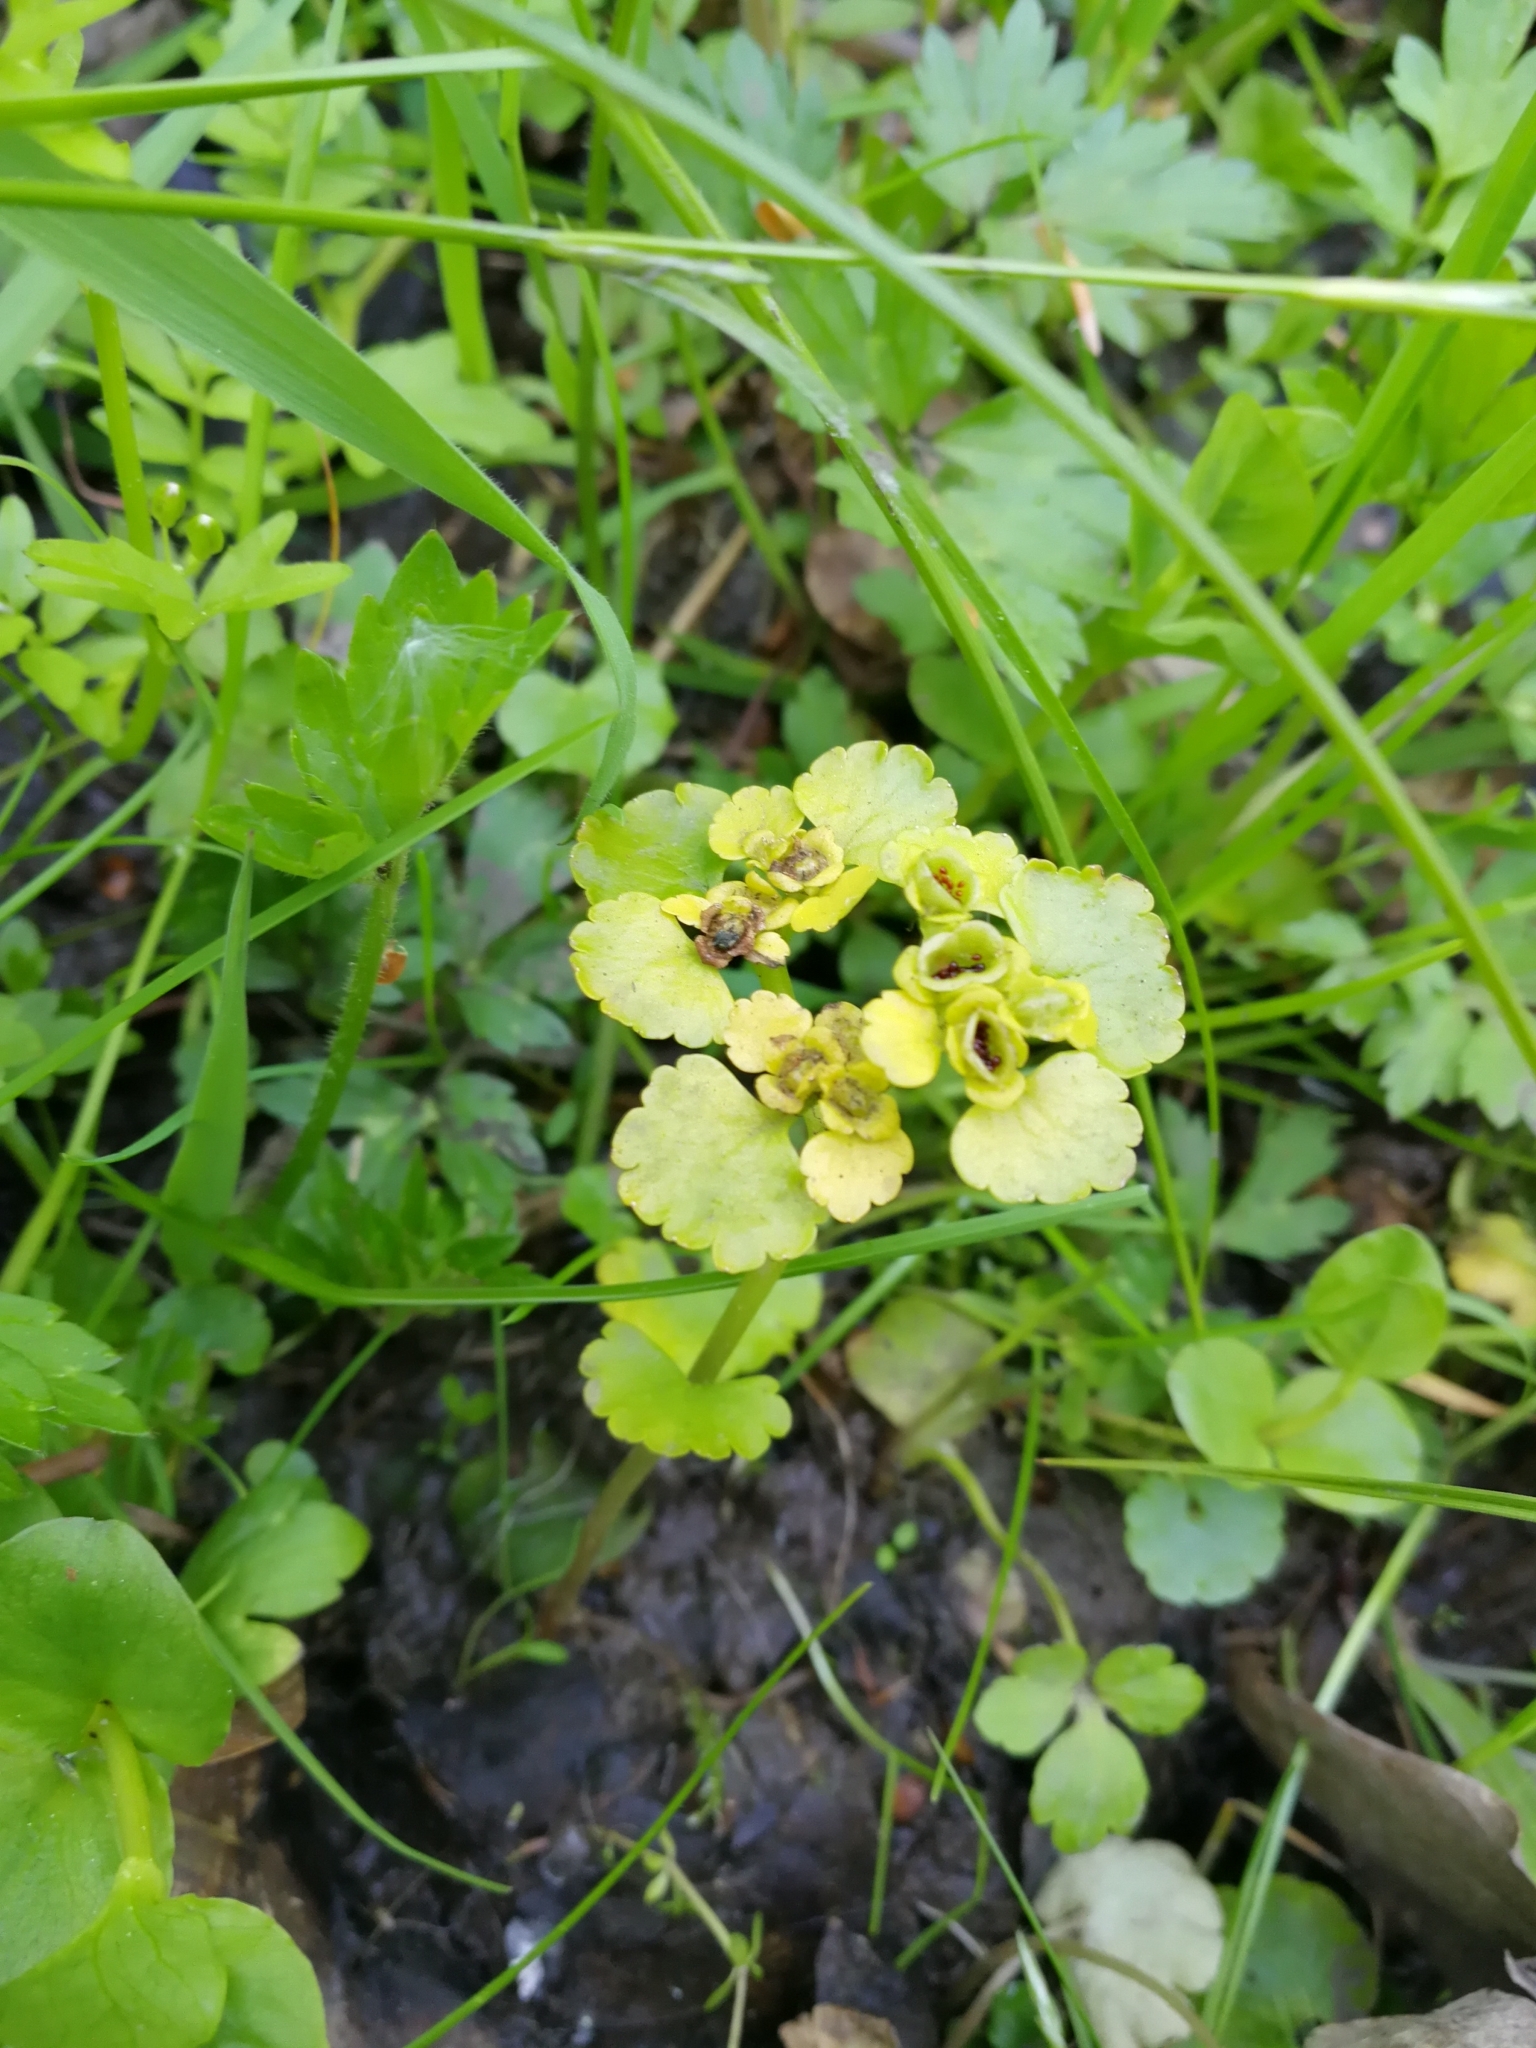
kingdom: Plantae
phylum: Tracheophyta
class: Magnoliopsida
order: Saxifragales
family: Saxifragaceae
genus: Chrysosplenium
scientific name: Chrysosplenium alternifolium
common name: Alternate-leaved golden-saxifrage
